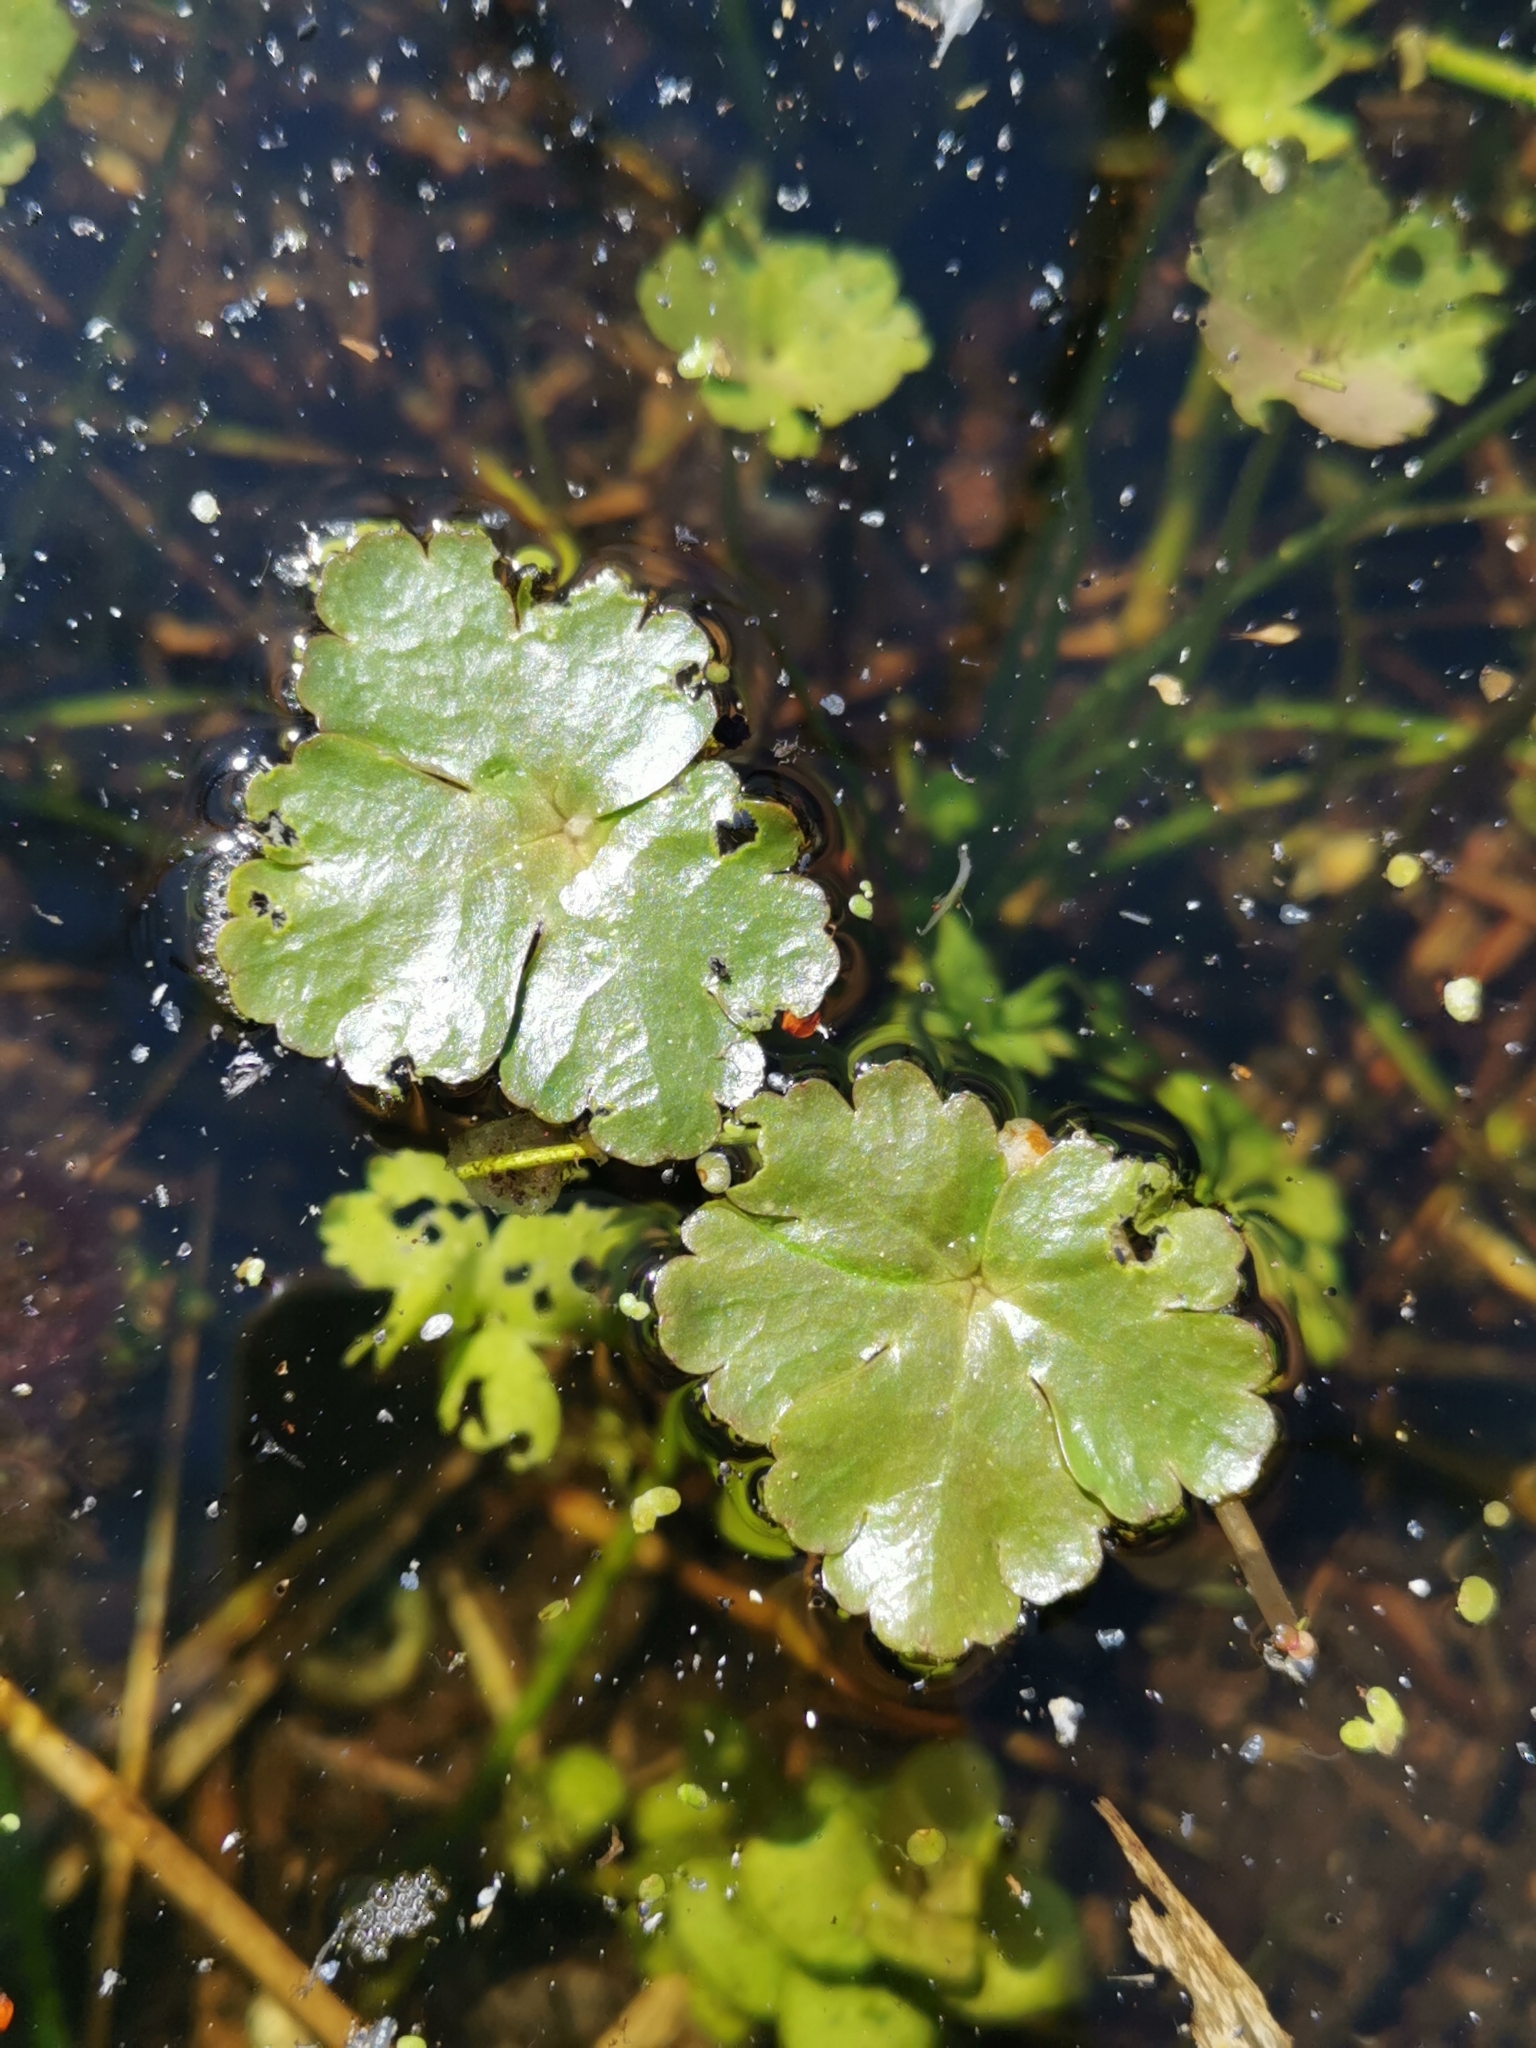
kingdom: Plantae
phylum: Tracheophyta
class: Magnoliopsida
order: Ranunculales
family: Ranunculaceae
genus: Ranunculus
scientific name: Ranunculus sceleratus
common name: Celery-leaved buttercup
